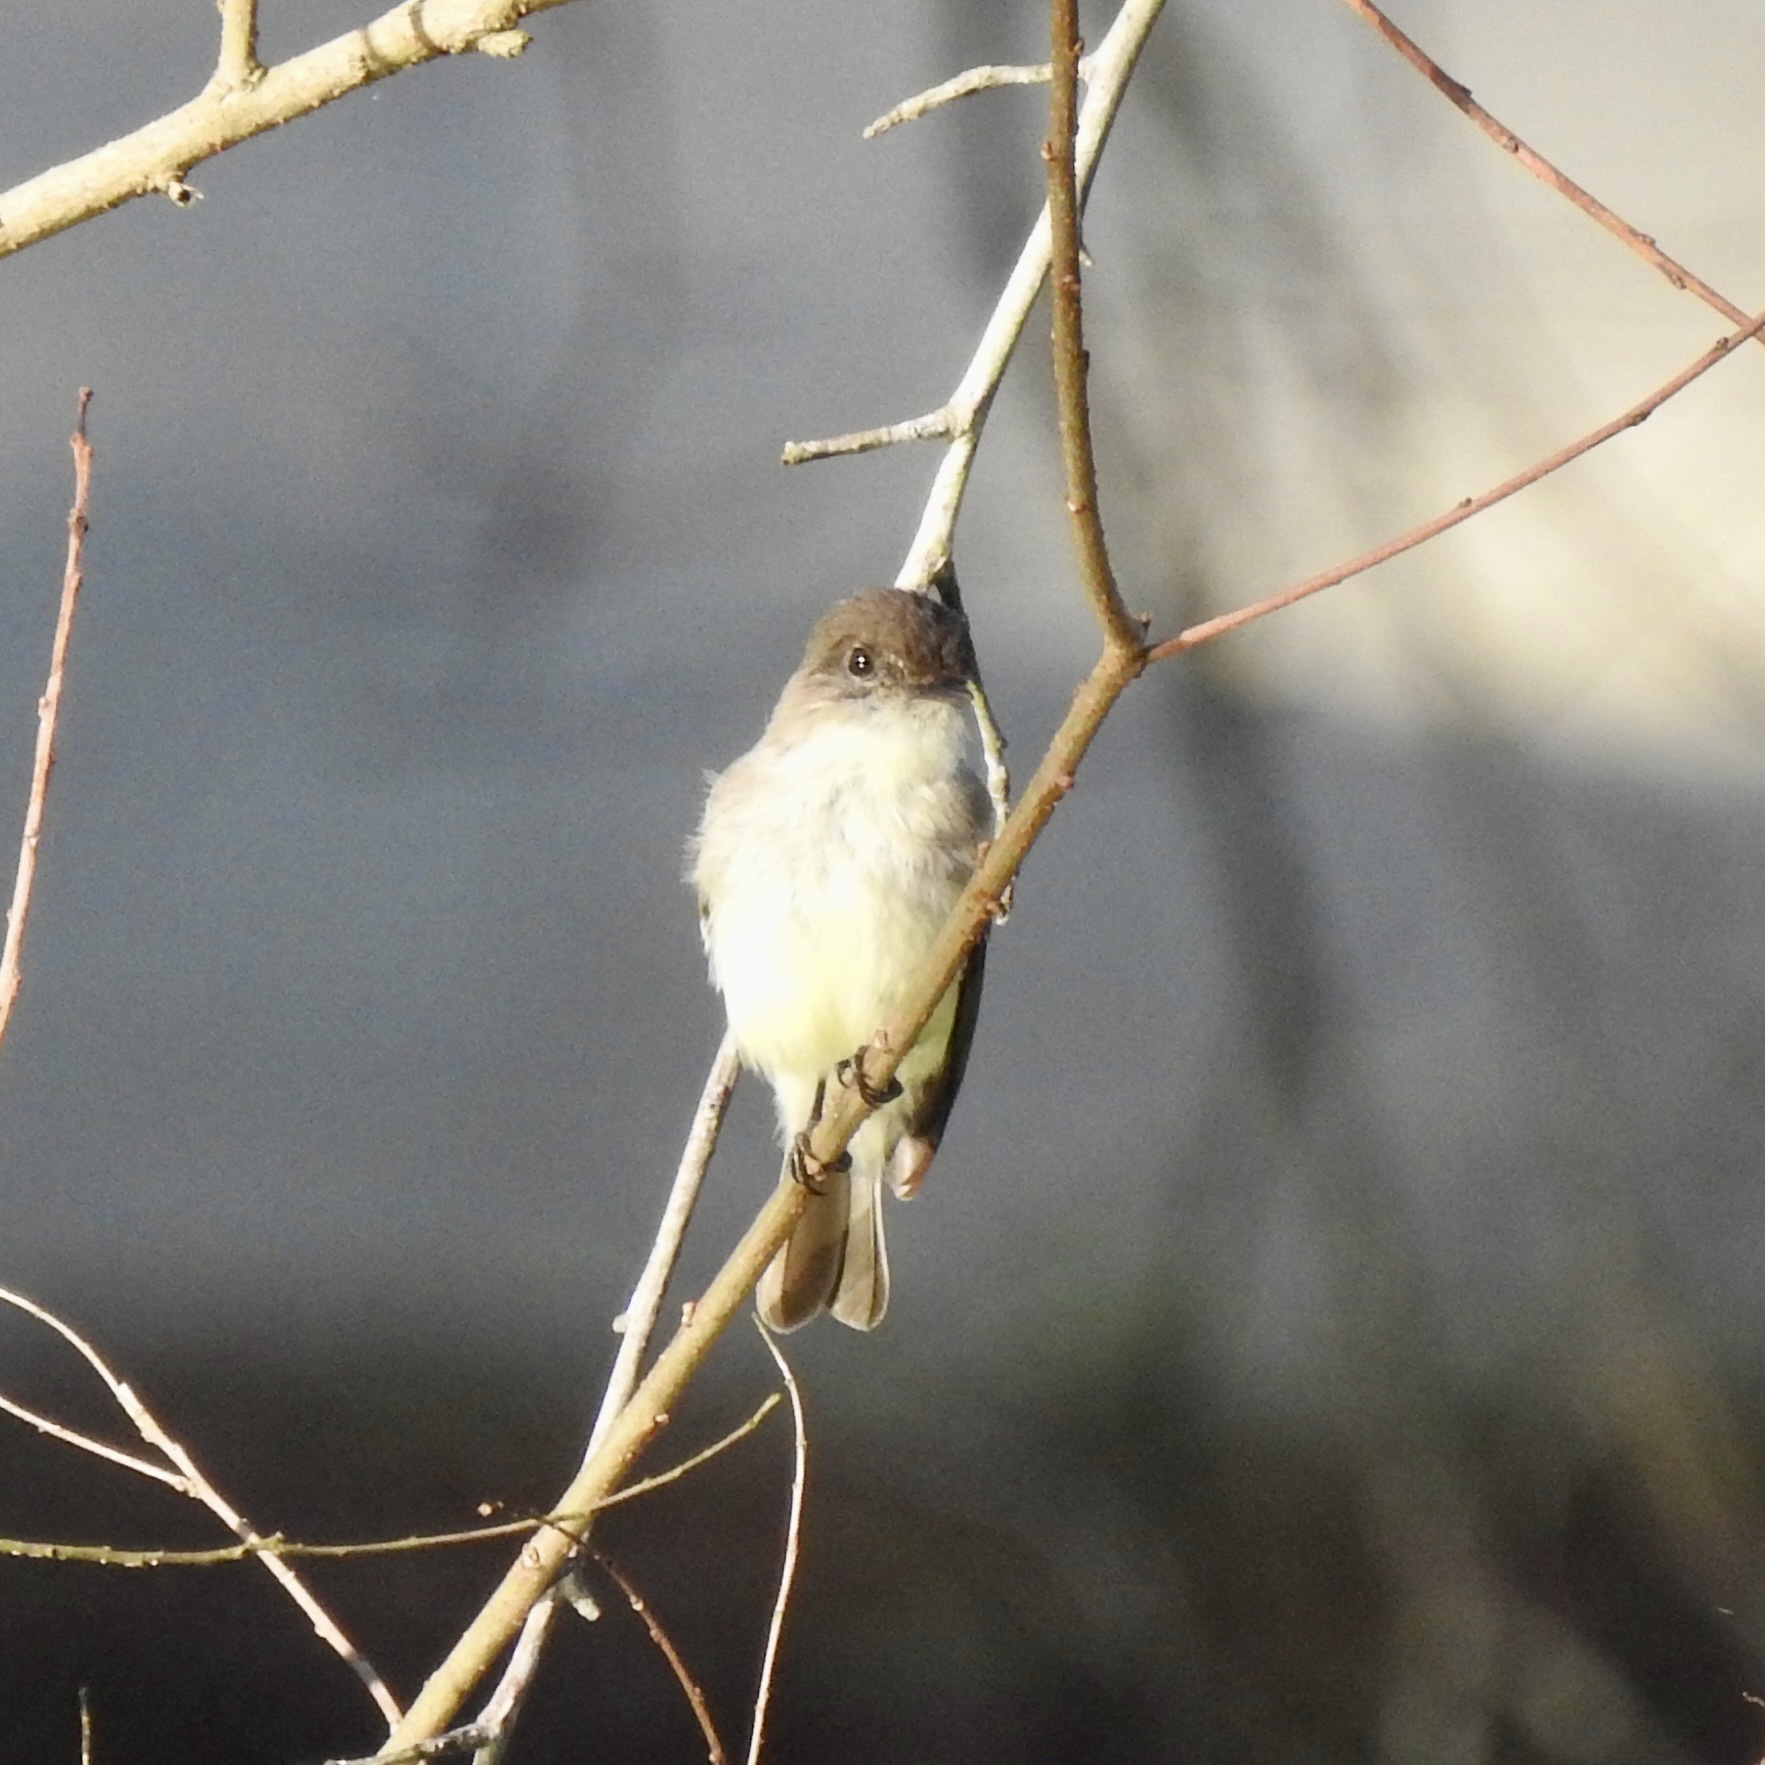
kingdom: Animalia
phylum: Chordata
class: Aves
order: Passeriformes
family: Tyrannidae
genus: Sayornis
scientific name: Sayornis phoebe
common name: Eastern phoebe
